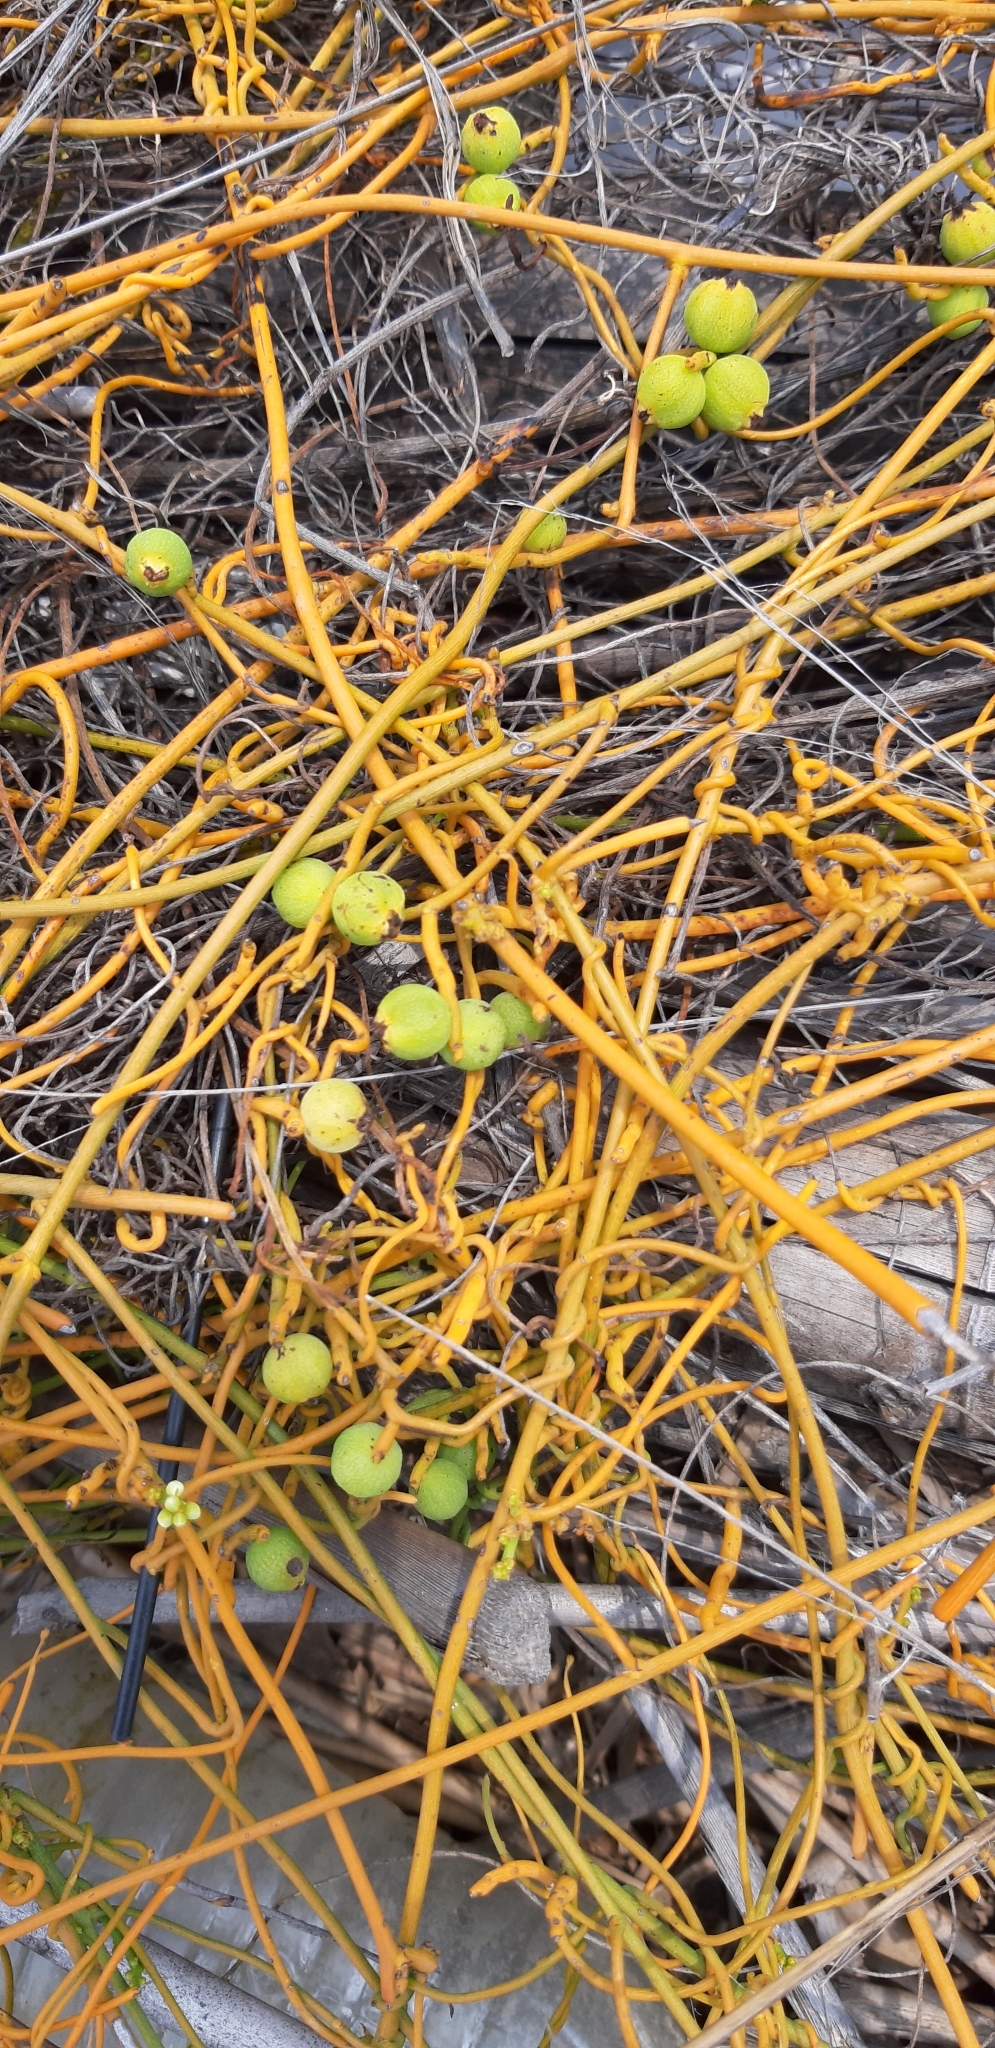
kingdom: Plantae
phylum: Tracheophyta
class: Magnoliopsida
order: Laurales
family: Lauraceae
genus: Cassytha
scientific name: Cassytha filiformis
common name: Dodder-laurel
